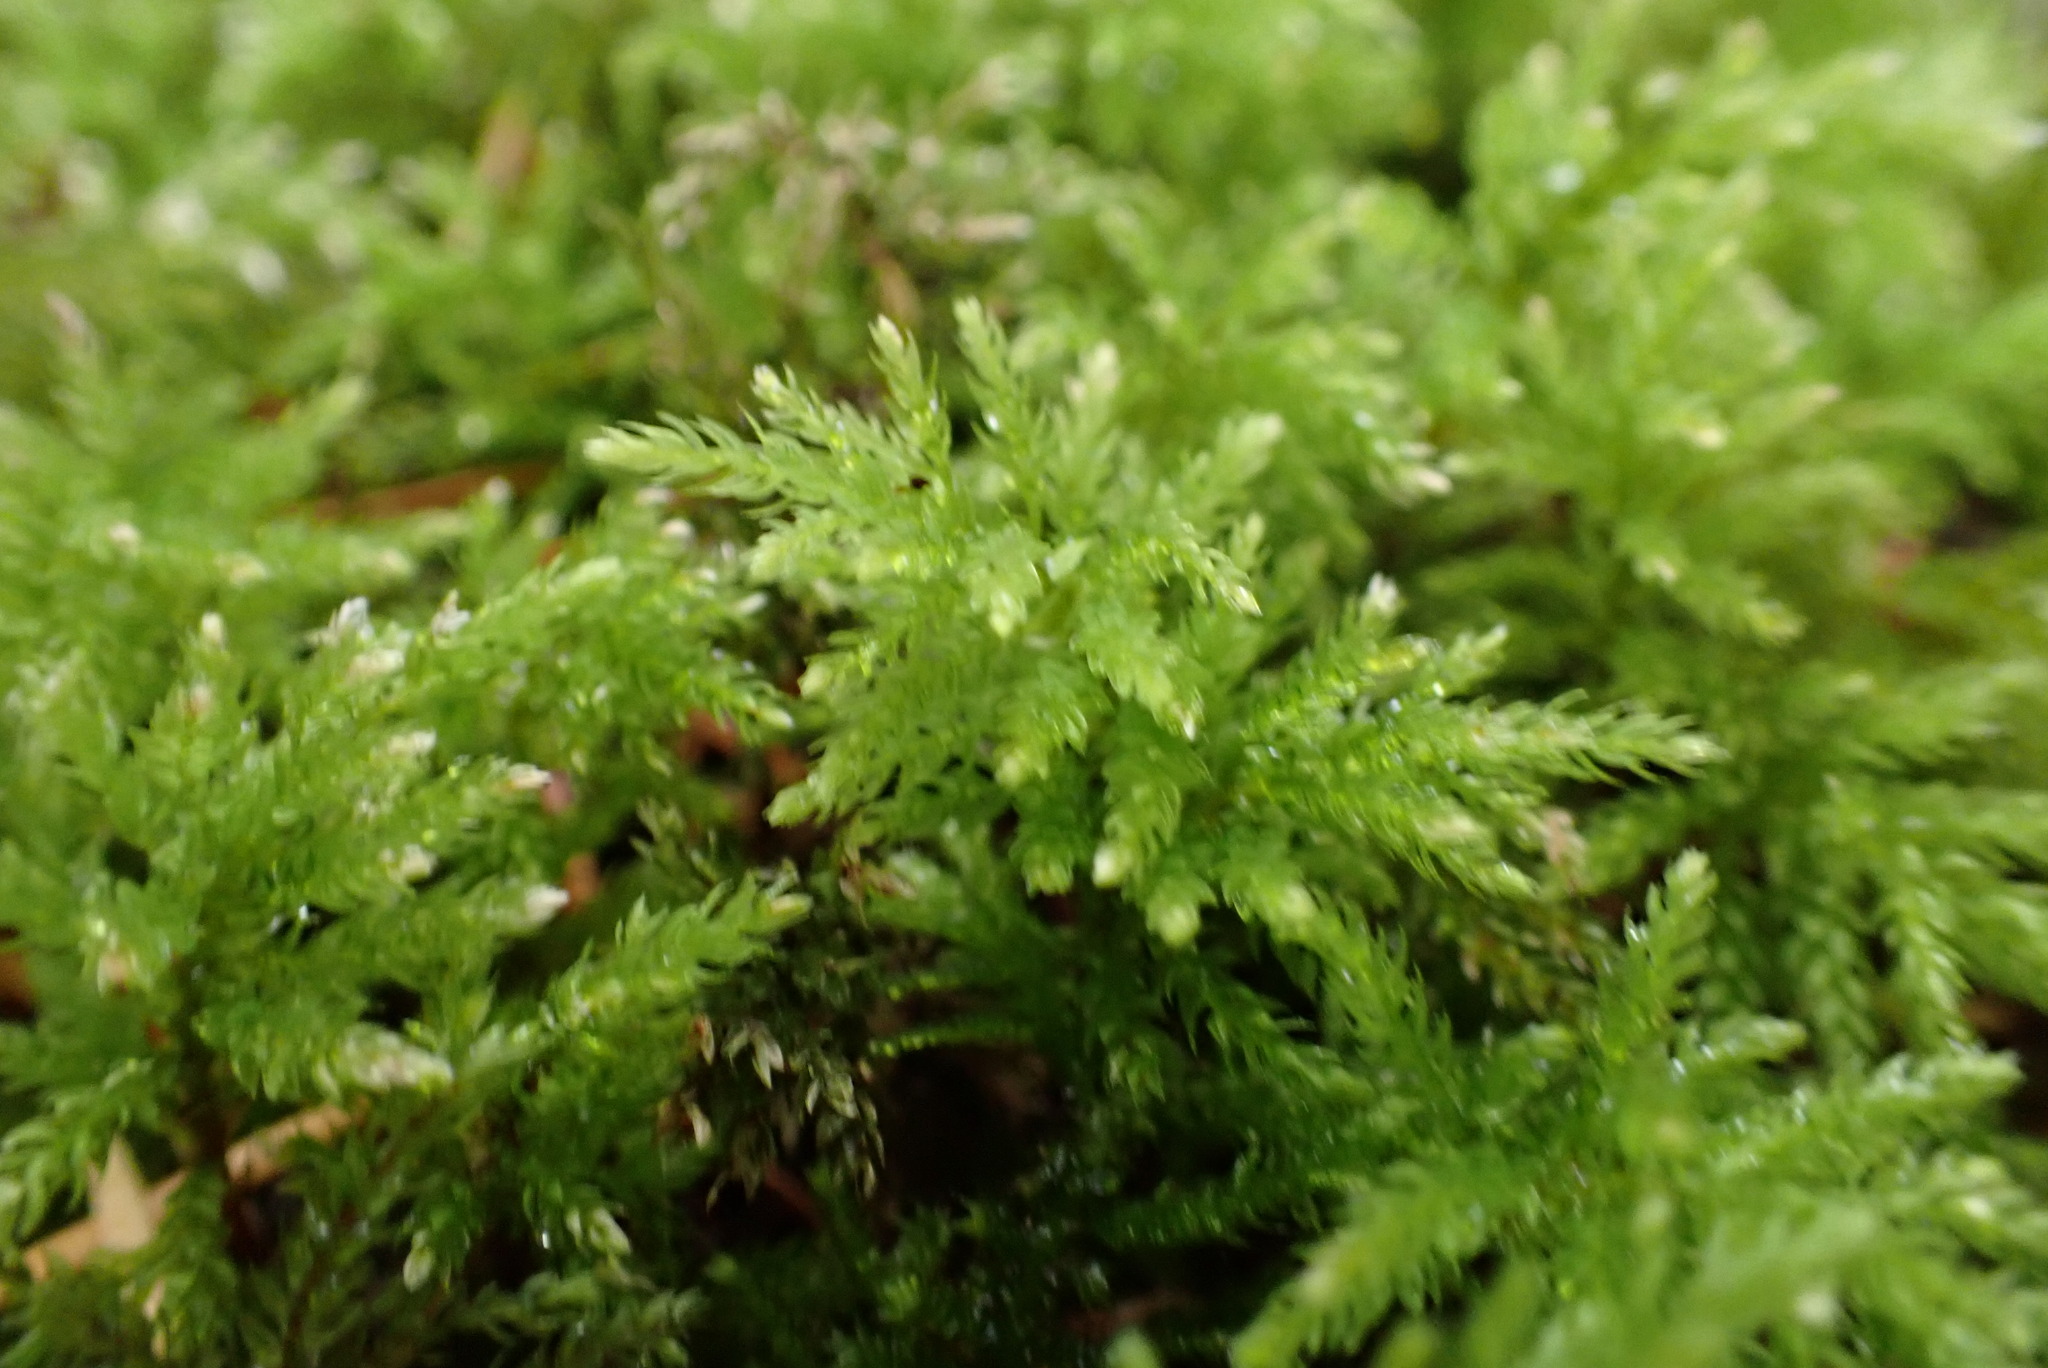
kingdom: Plantae
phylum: Bryophyta
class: Bryopsida
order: Bryales
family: Mniaceae
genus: Leucolepis
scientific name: Leucolepis acanthoneura
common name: Leucolepis umbrella moss
